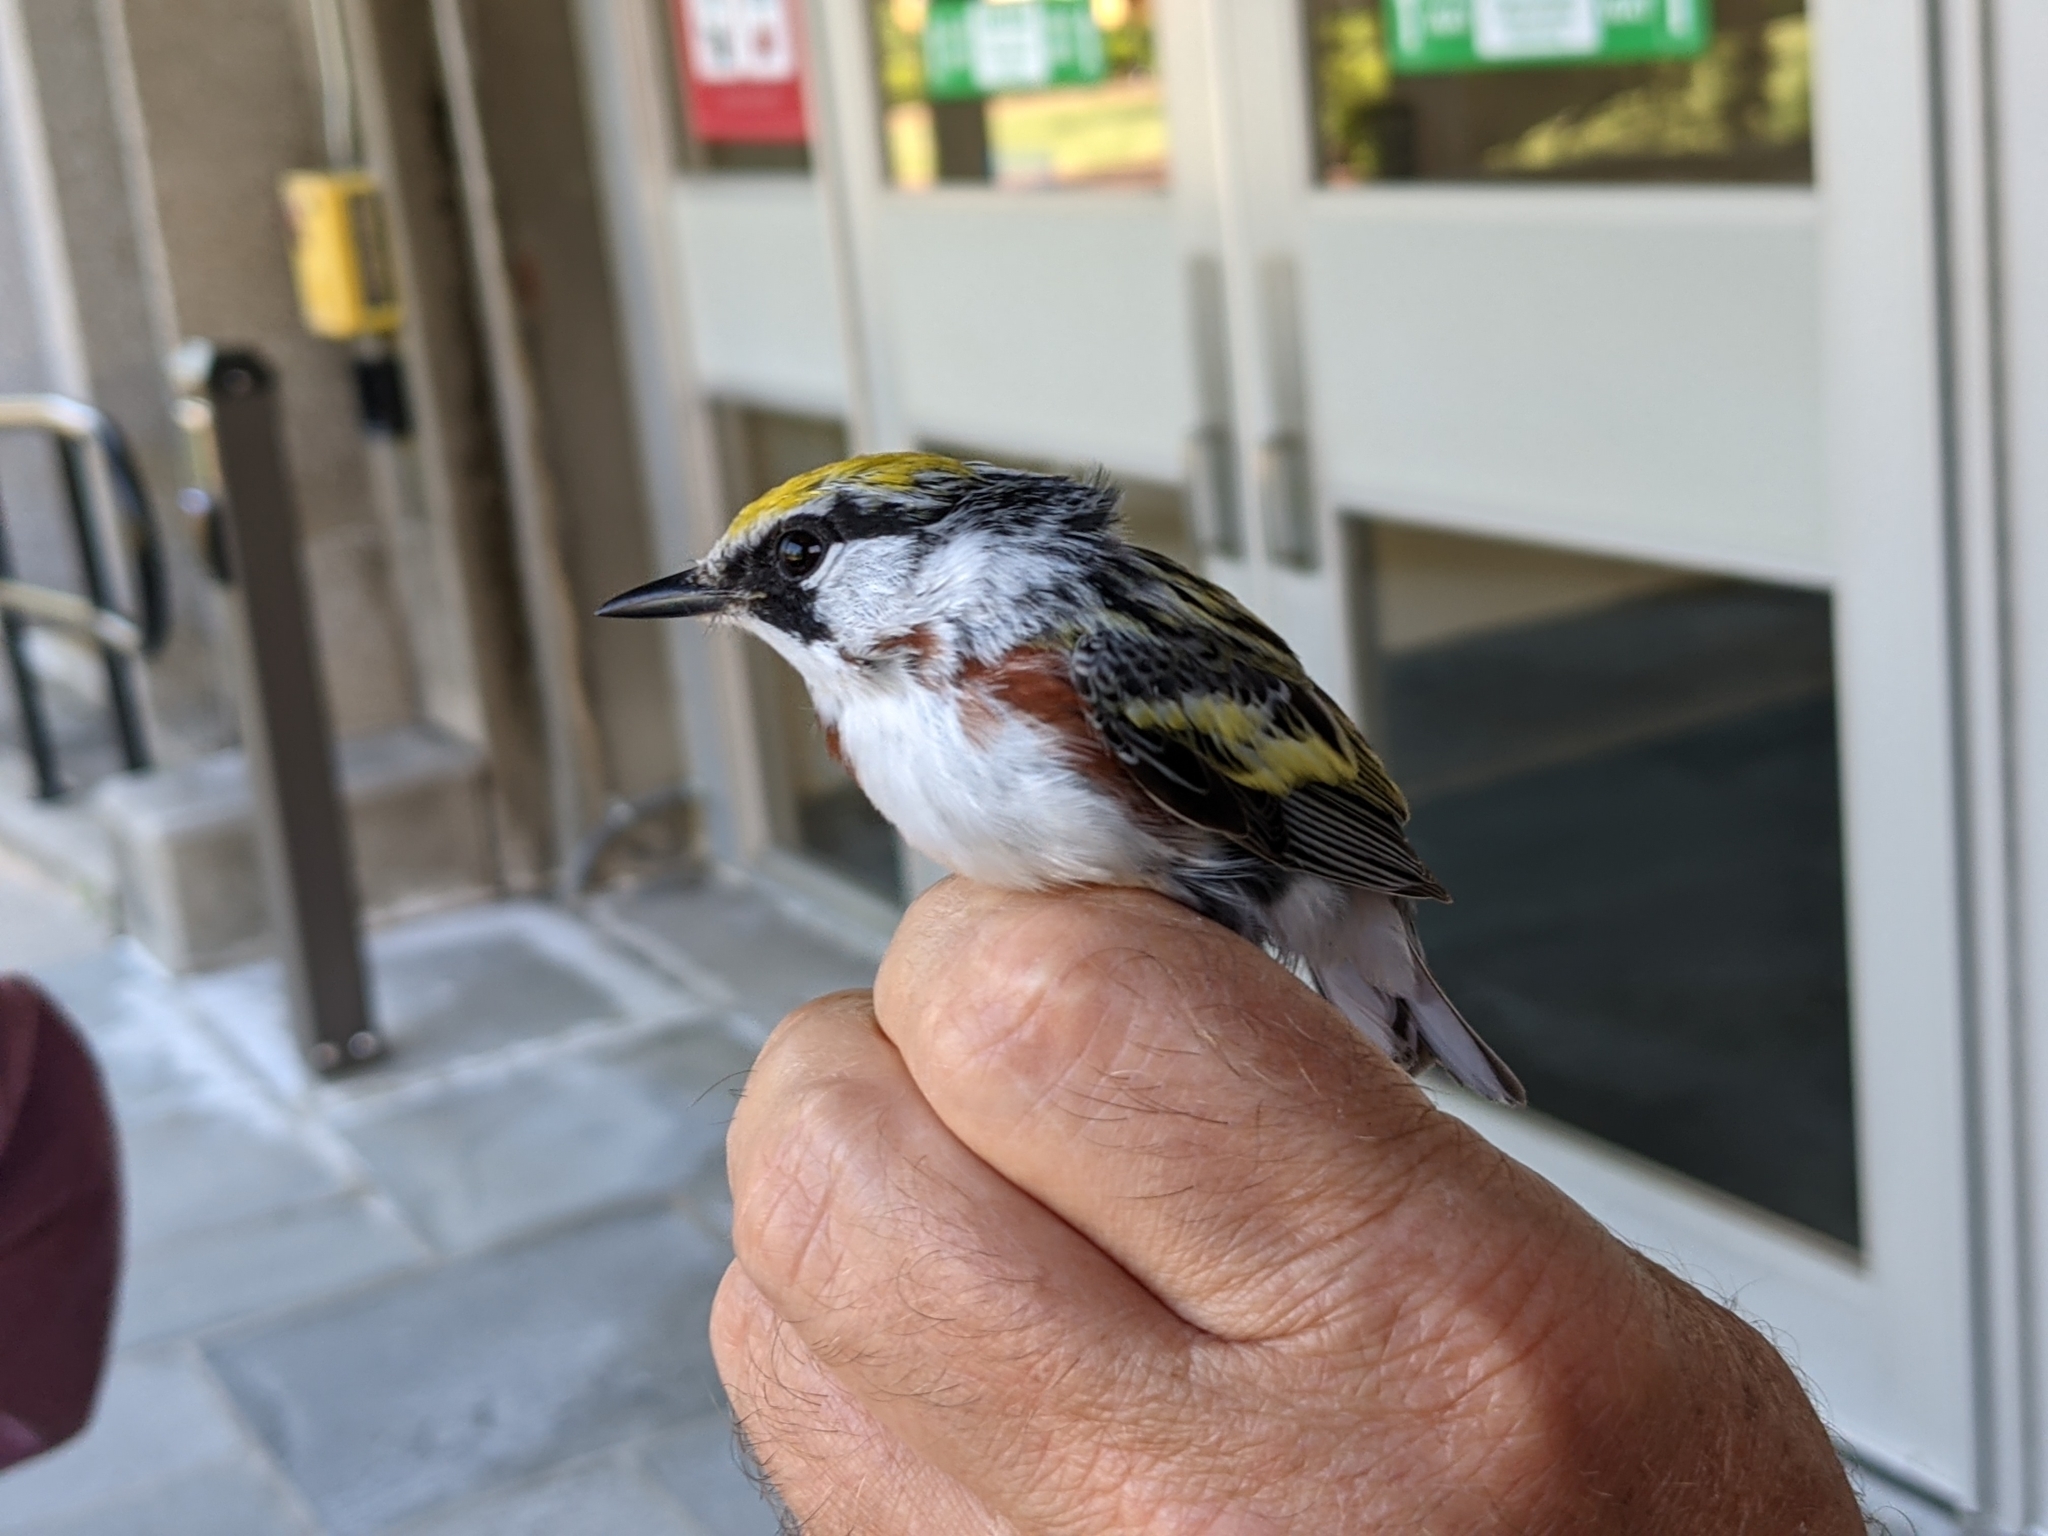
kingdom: Animalia
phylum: Chordata
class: Aves
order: Passeriformes
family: Parulidae
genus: Setophaga
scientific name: Setophaga pensylvanica
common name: Chestnut-sided warbler
